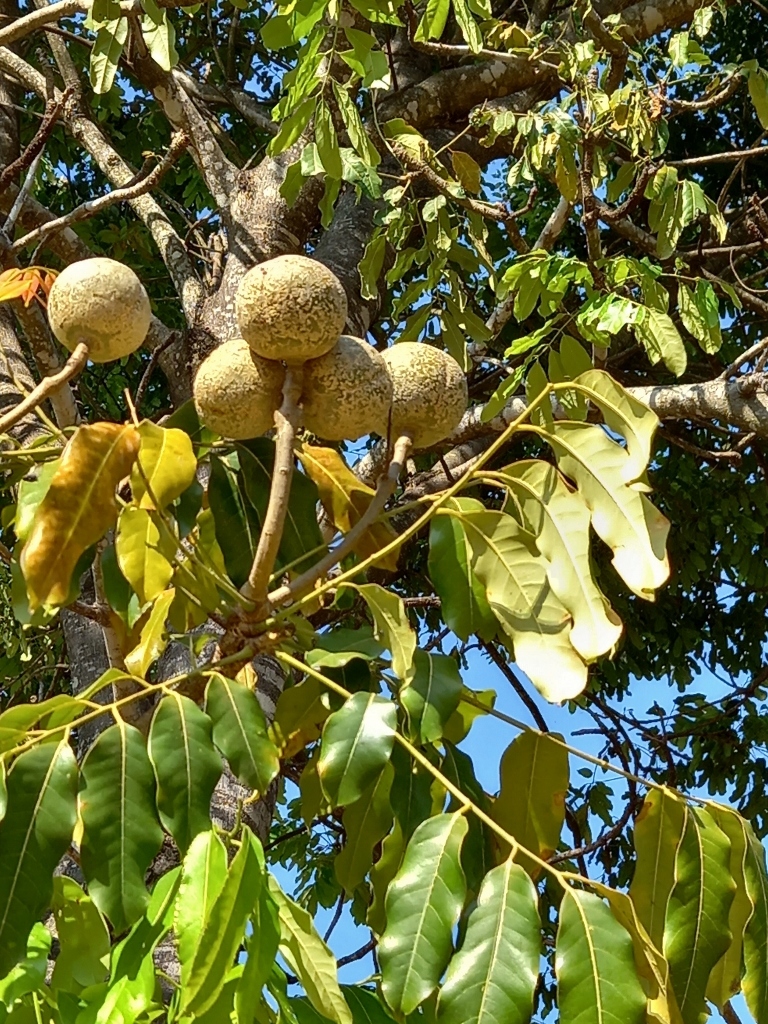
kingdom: Plantae
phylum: Tracheophyta
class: Magnoliopsida
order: Sapindales
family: Meliaceae
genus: Khaya
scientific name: Khaya anthotheca
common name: Nyasaland mahogany
